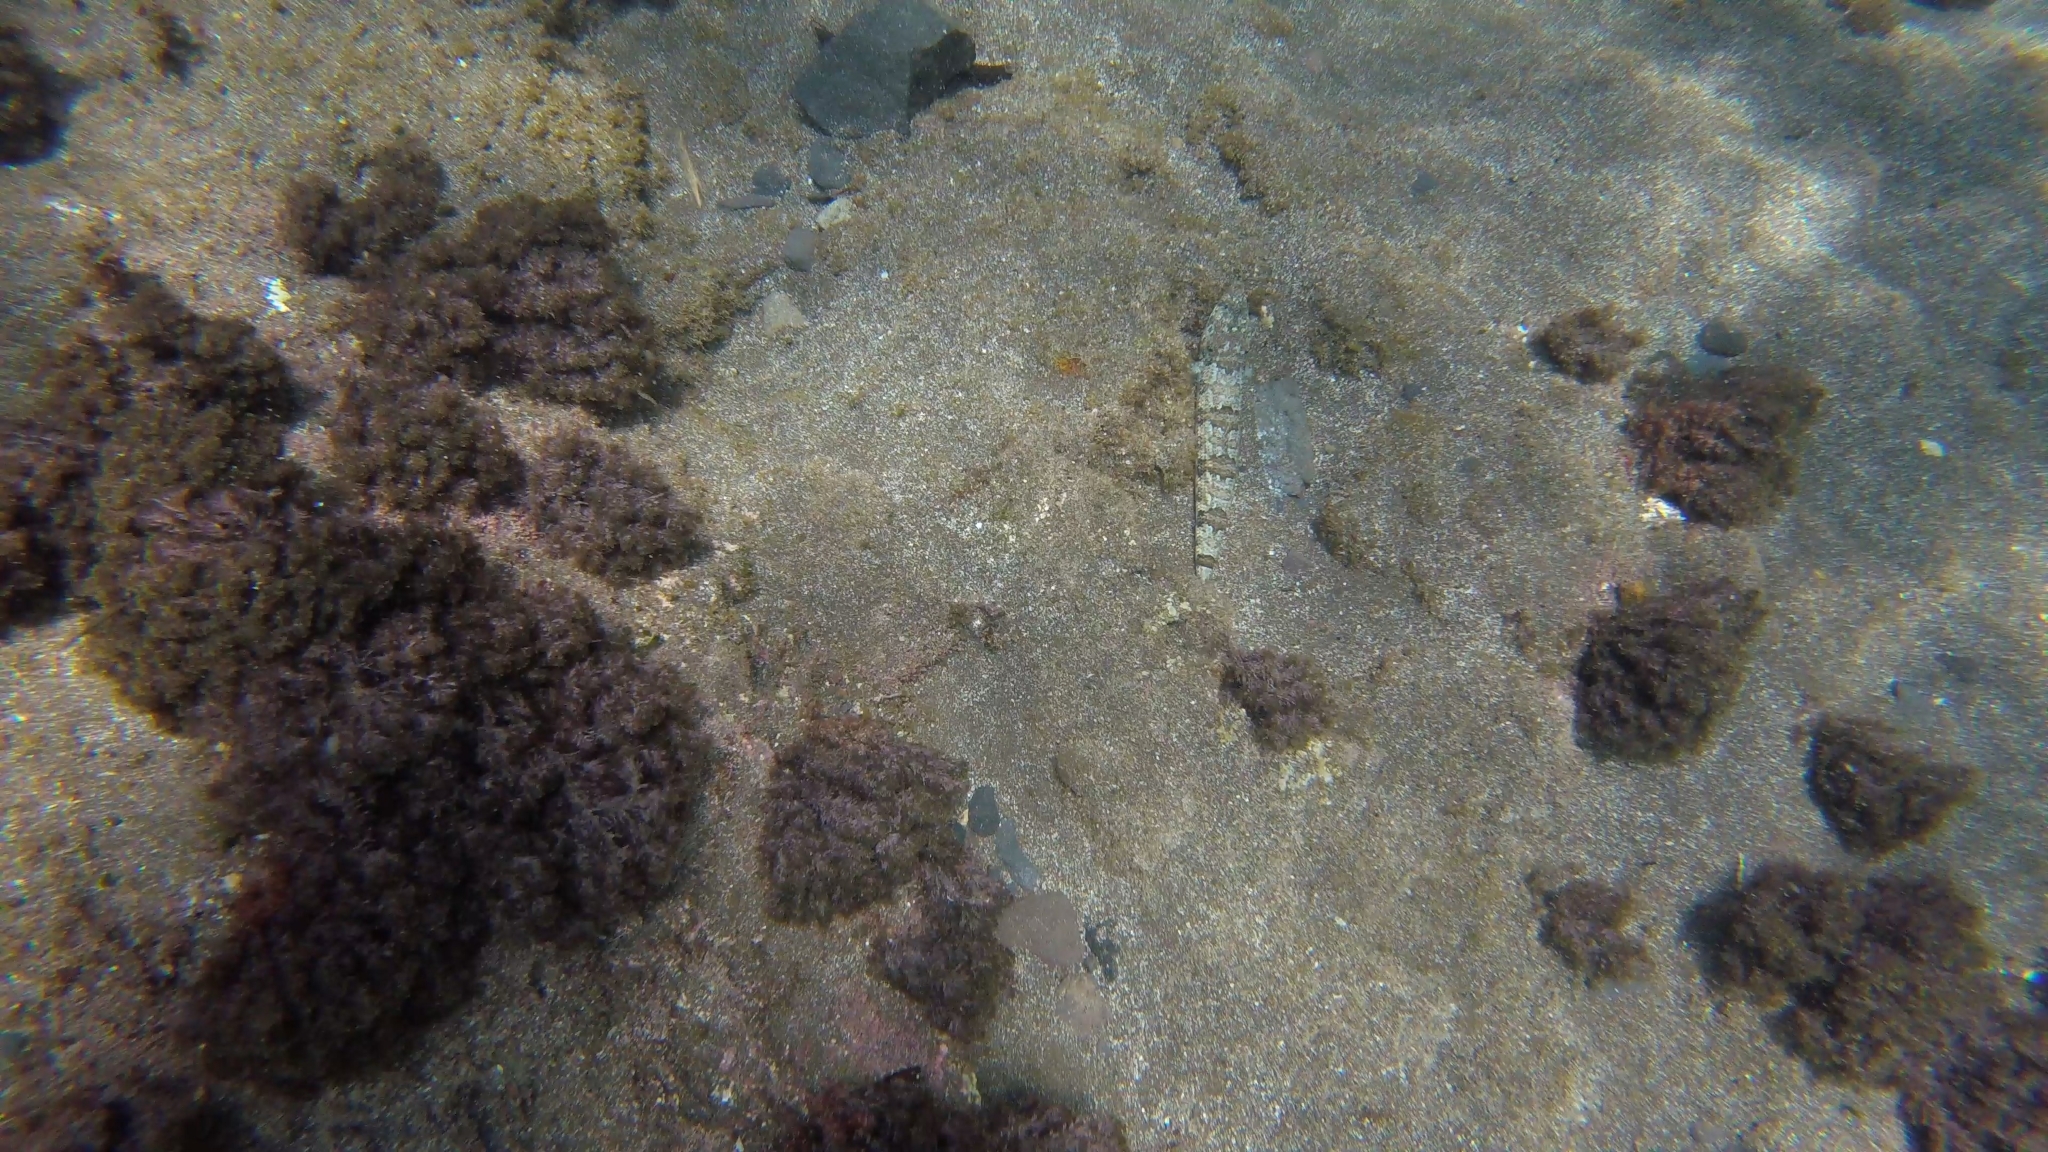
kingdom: Animalia
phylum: Chordata
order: Aulopiformes
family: Synodontidae
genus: Synodus
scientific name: Synodus synodus
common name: Red lizardfish
